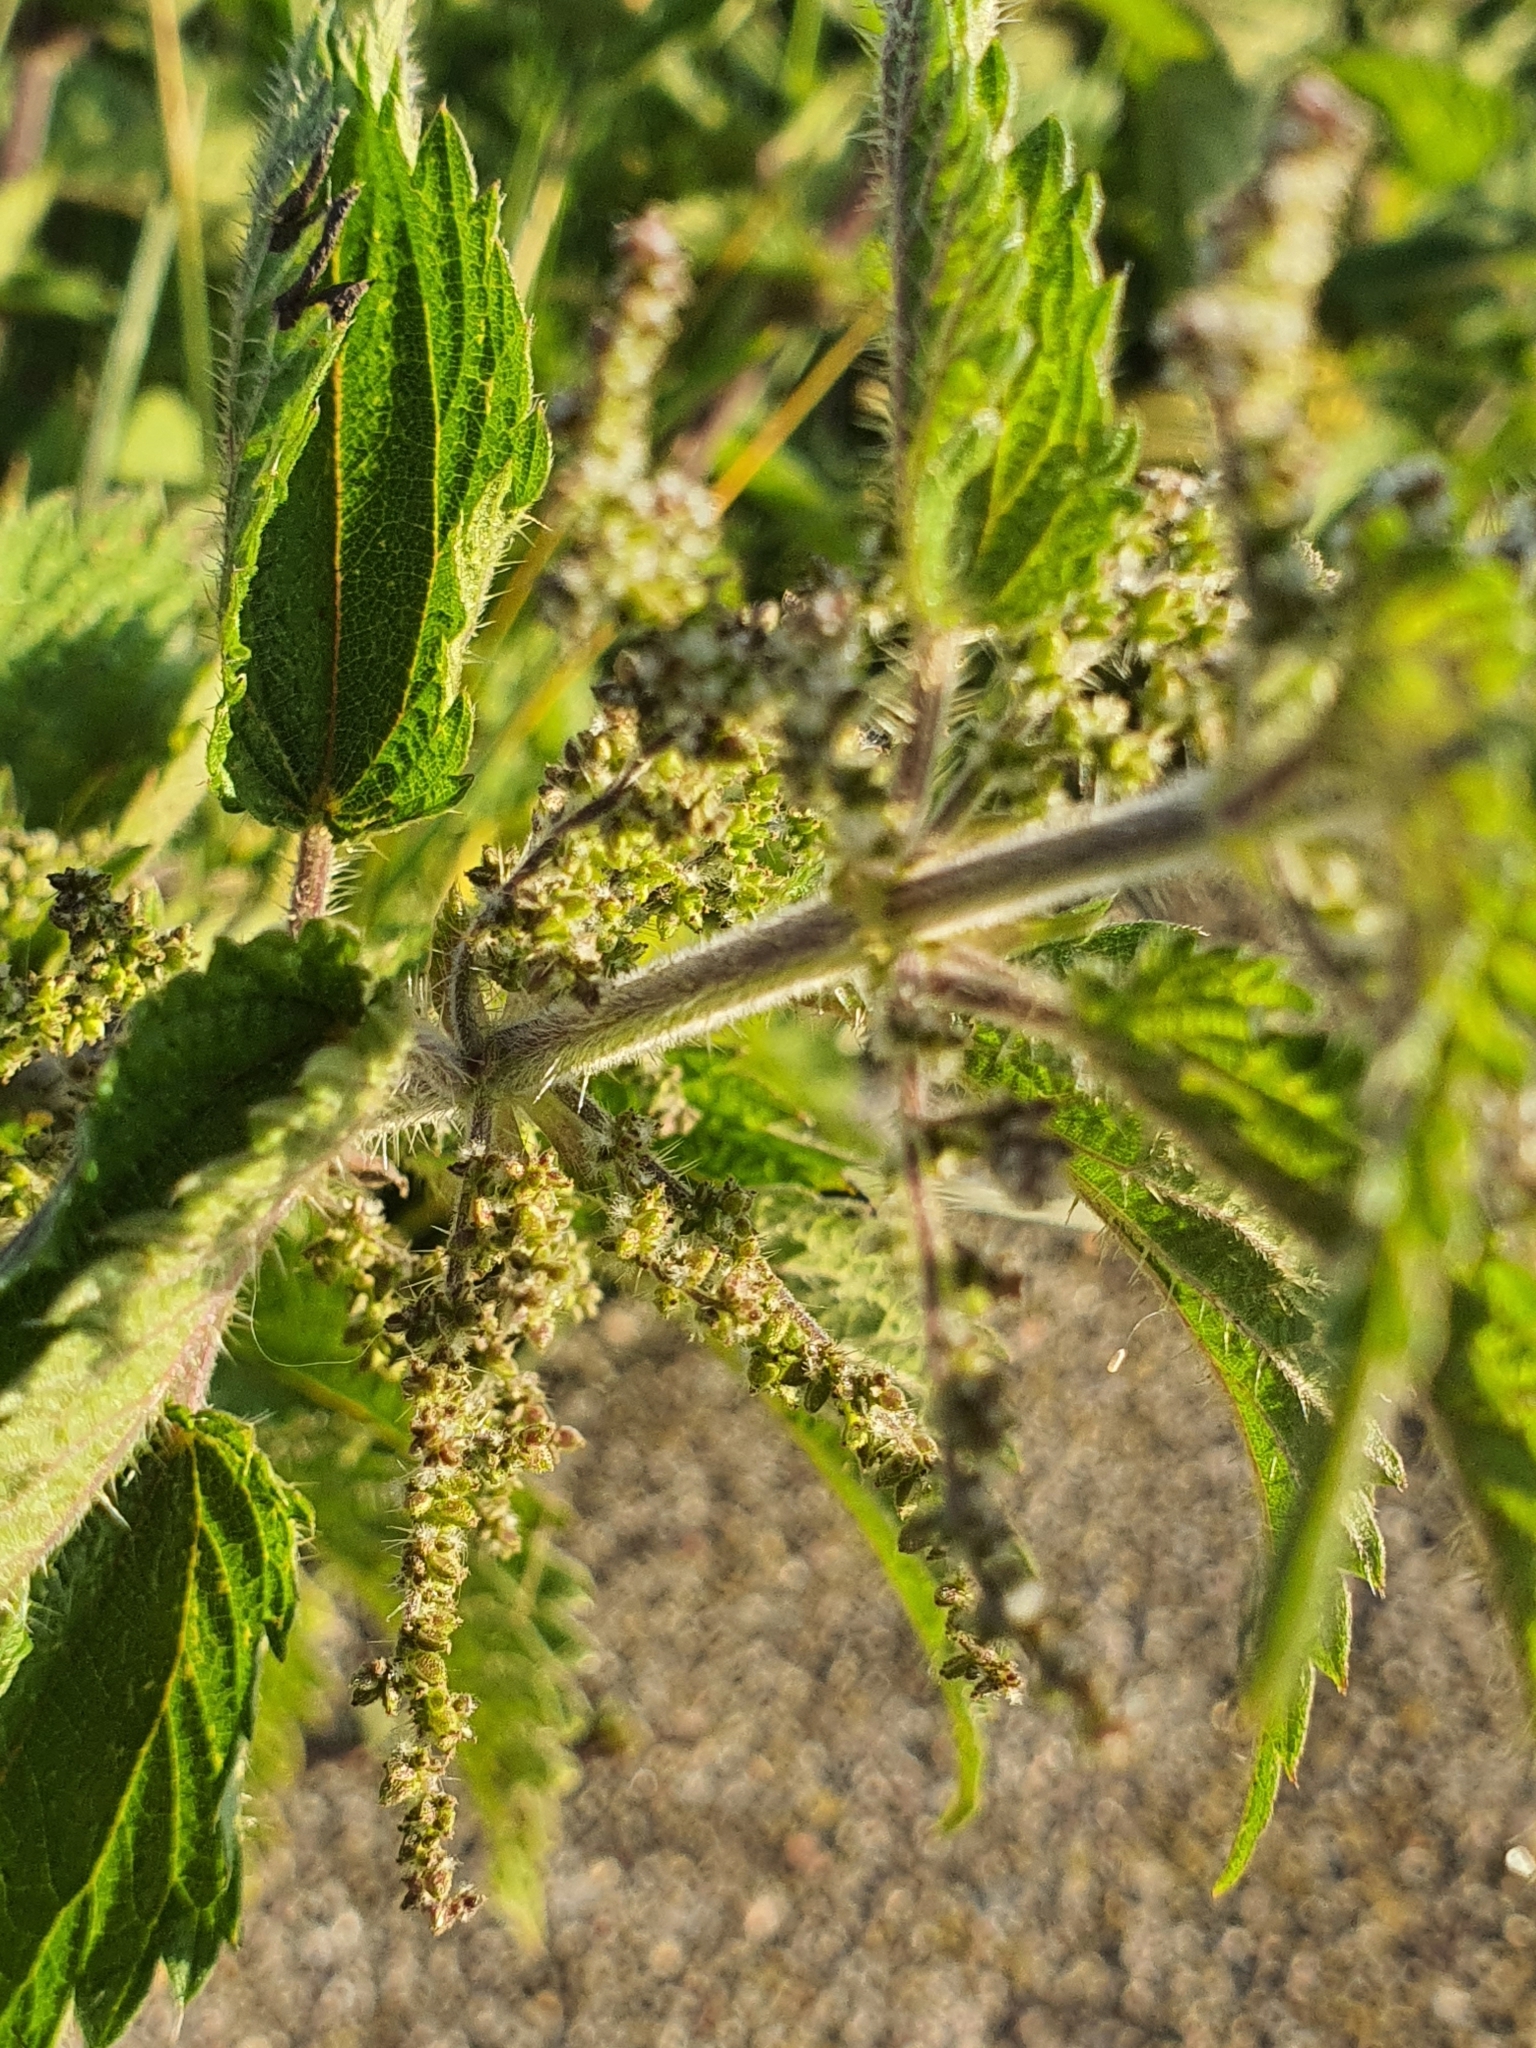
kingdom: Plantae
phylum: Tracheophyta
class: Magnoliopsida
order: Rosales
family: Urticaceae
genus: Urtica
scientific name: Urtica dioica
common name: Common nettle
